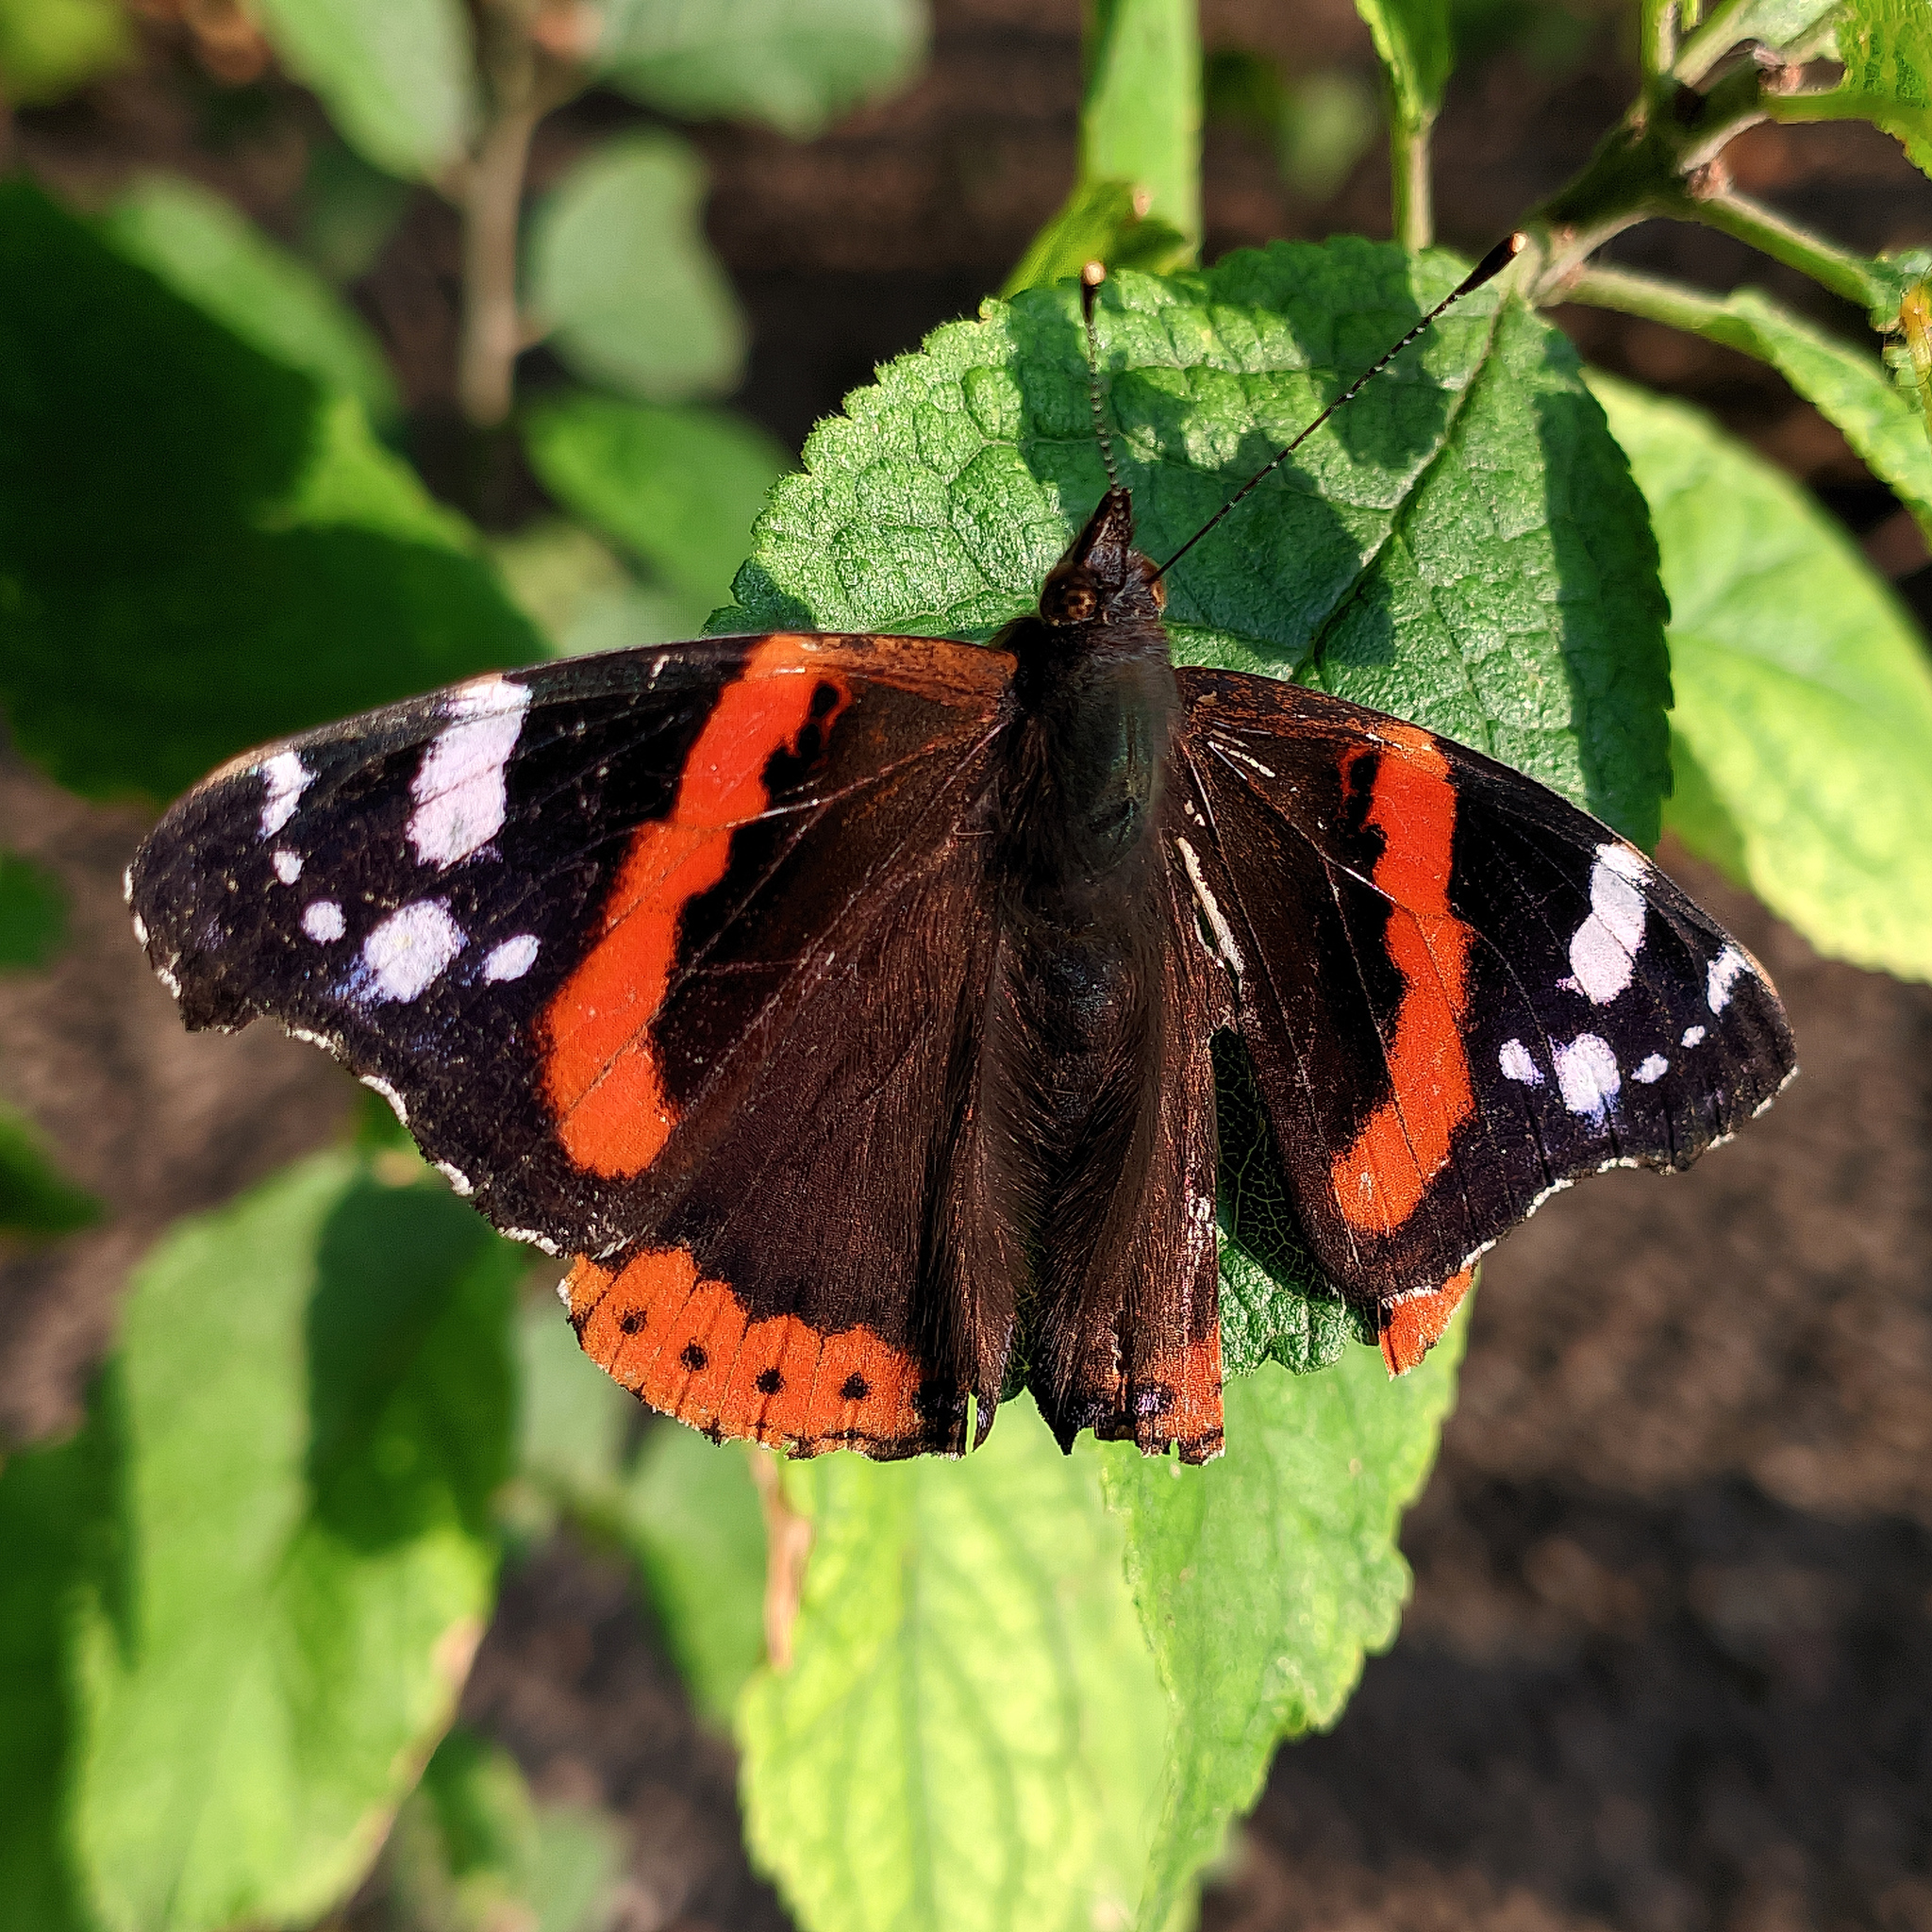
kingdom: Animalia
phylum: Arthropoda
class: Insecta
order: Lepidoptera
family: Nymphalidae
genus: Vanessa
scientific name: Vanessa atalanta
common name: Red admiral
